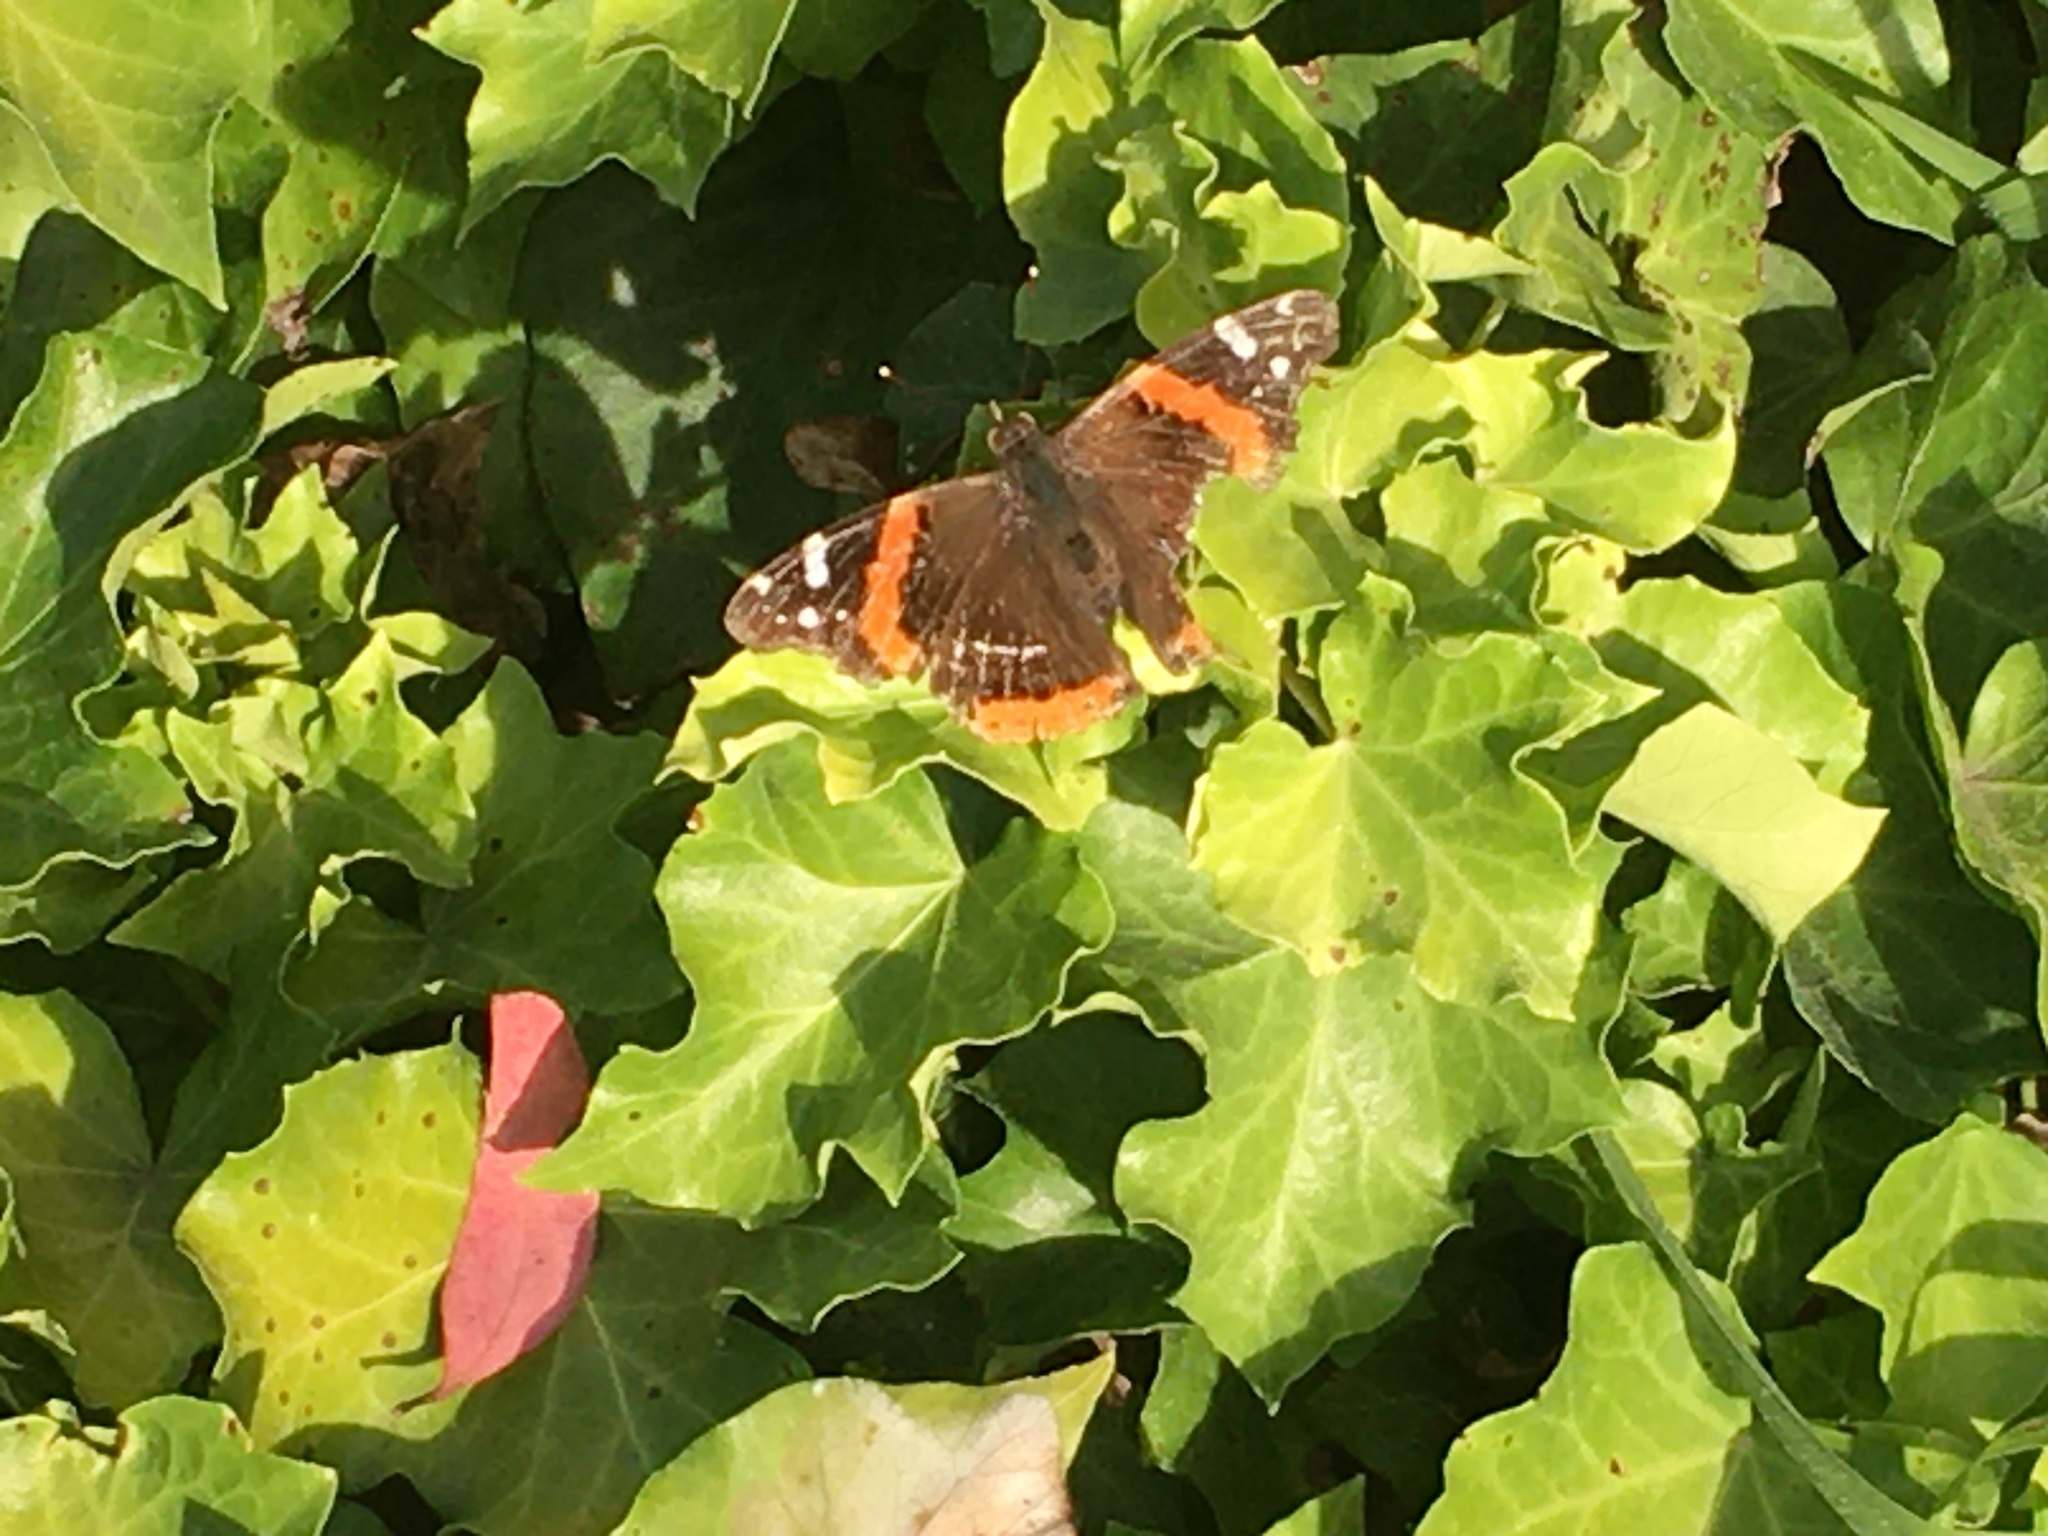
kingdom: Animalia
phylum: Arthropoda
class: Insecta
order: Lepidoptera
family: Nymphalidae
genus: Vanessa
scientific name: Vanessa atalanta
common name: Red admiral
